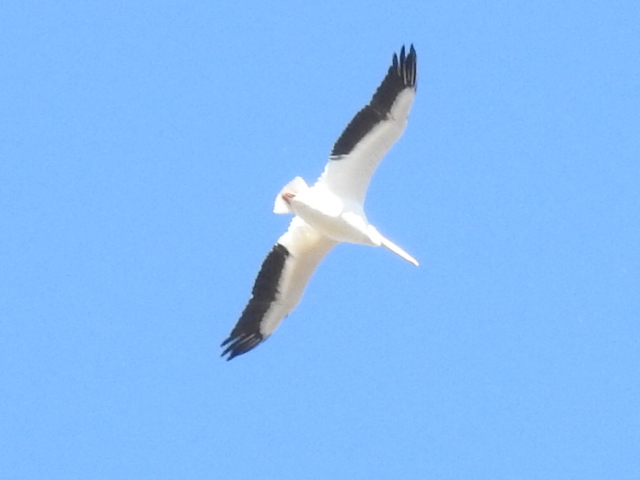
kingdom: Animalia
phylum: Chordata
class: Aves
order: Pelecaniformes
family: Pelecanidae
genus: Pelecanus
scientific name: Pelecanus erythrorhynchos
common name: American white pelican
